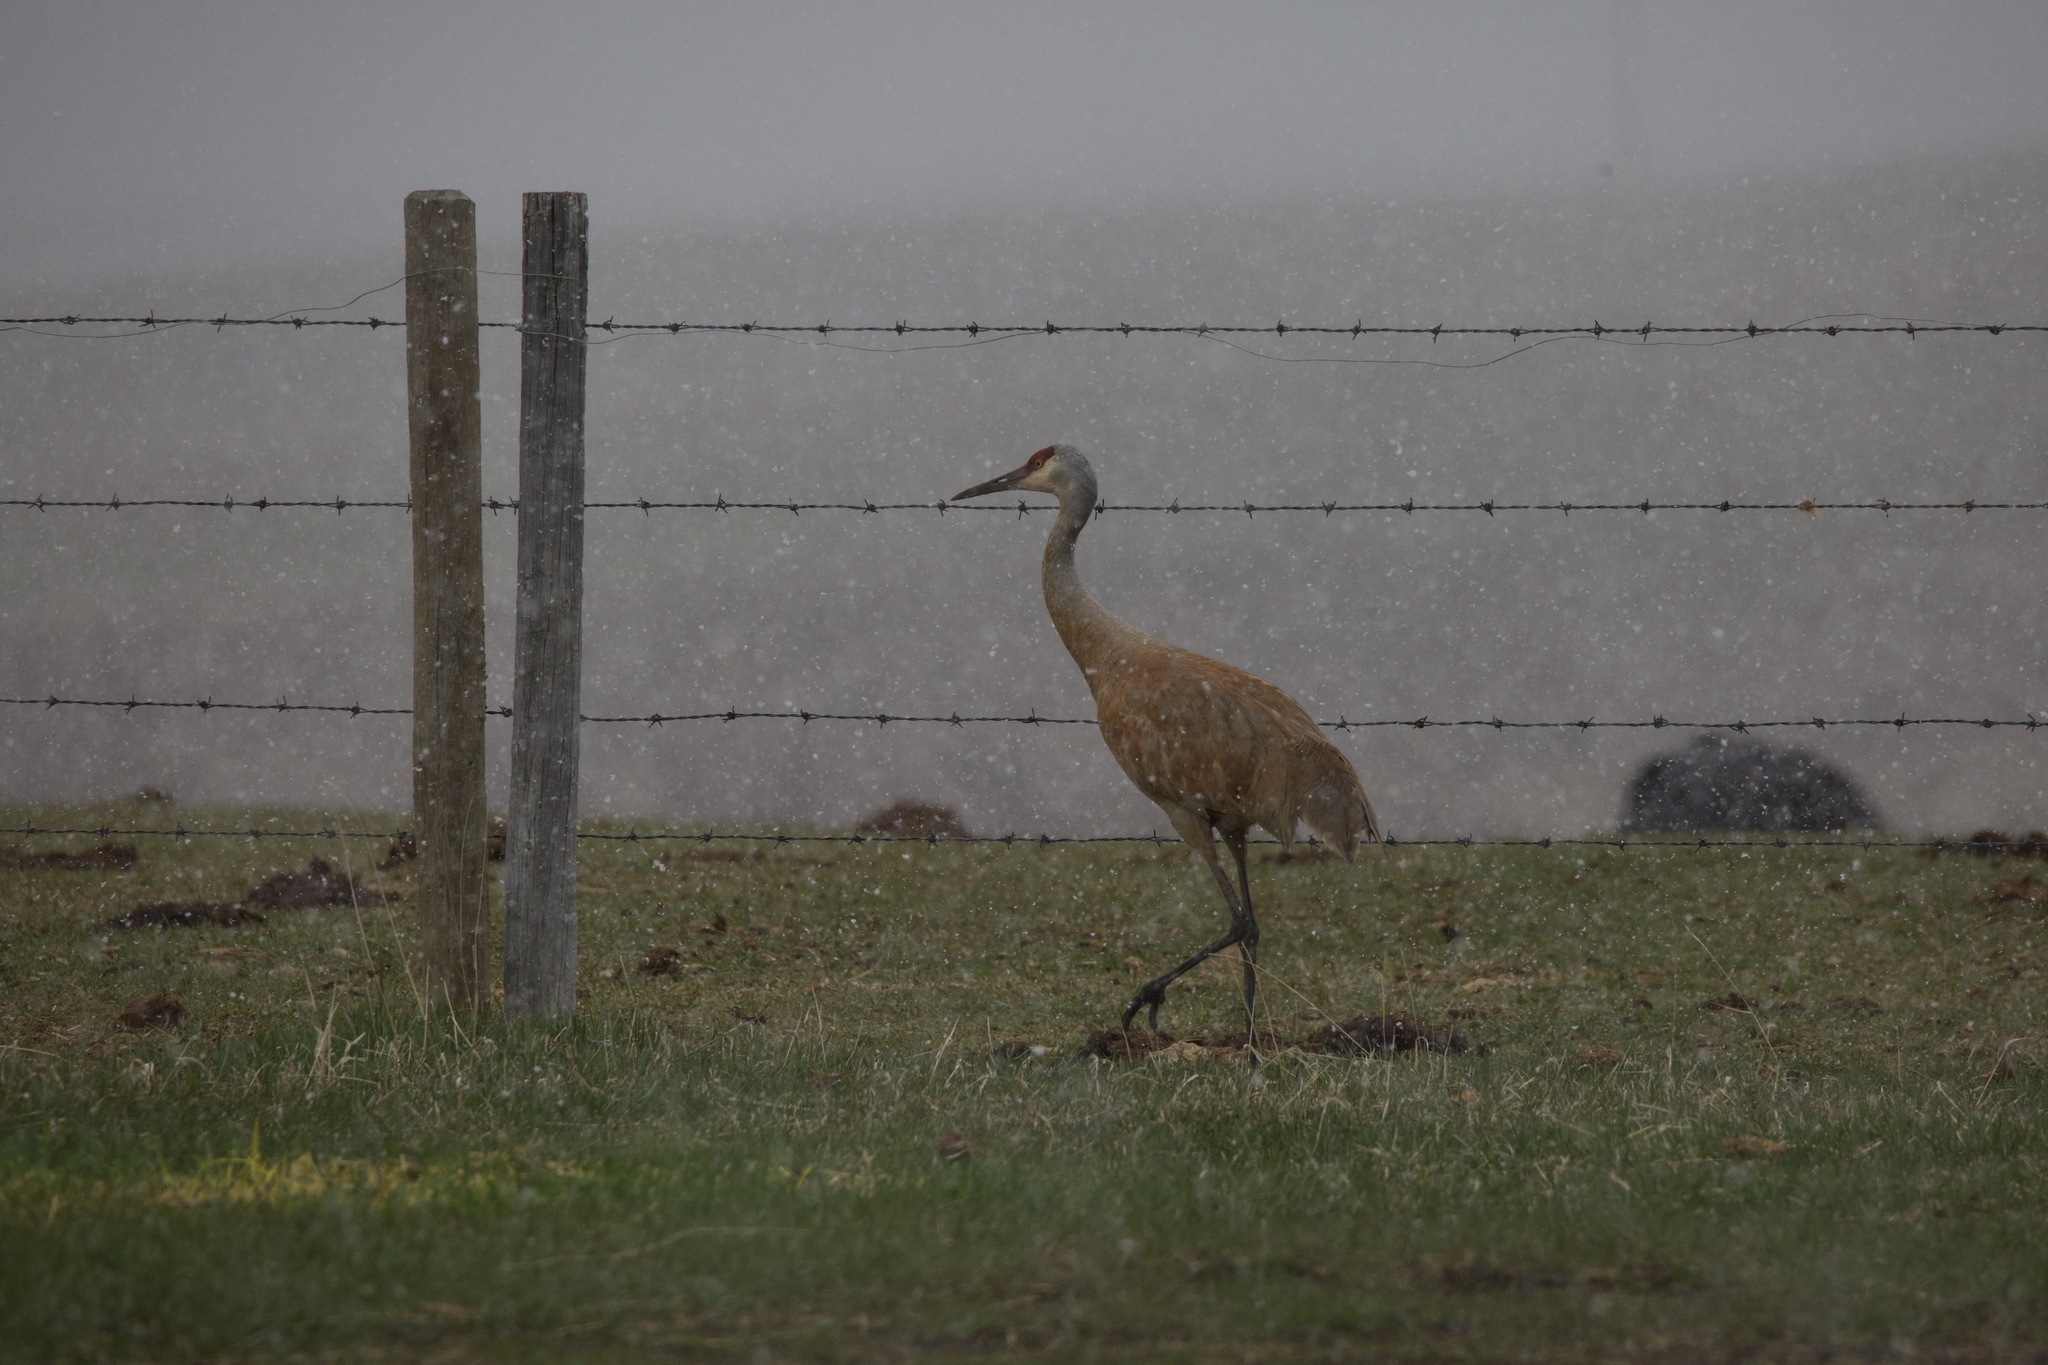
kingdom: Animalia
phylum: Chordata
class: Aves
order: Gruiformes
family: Gruidae
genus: Grus
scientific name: Grus canadensis
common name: Sandhill crane
